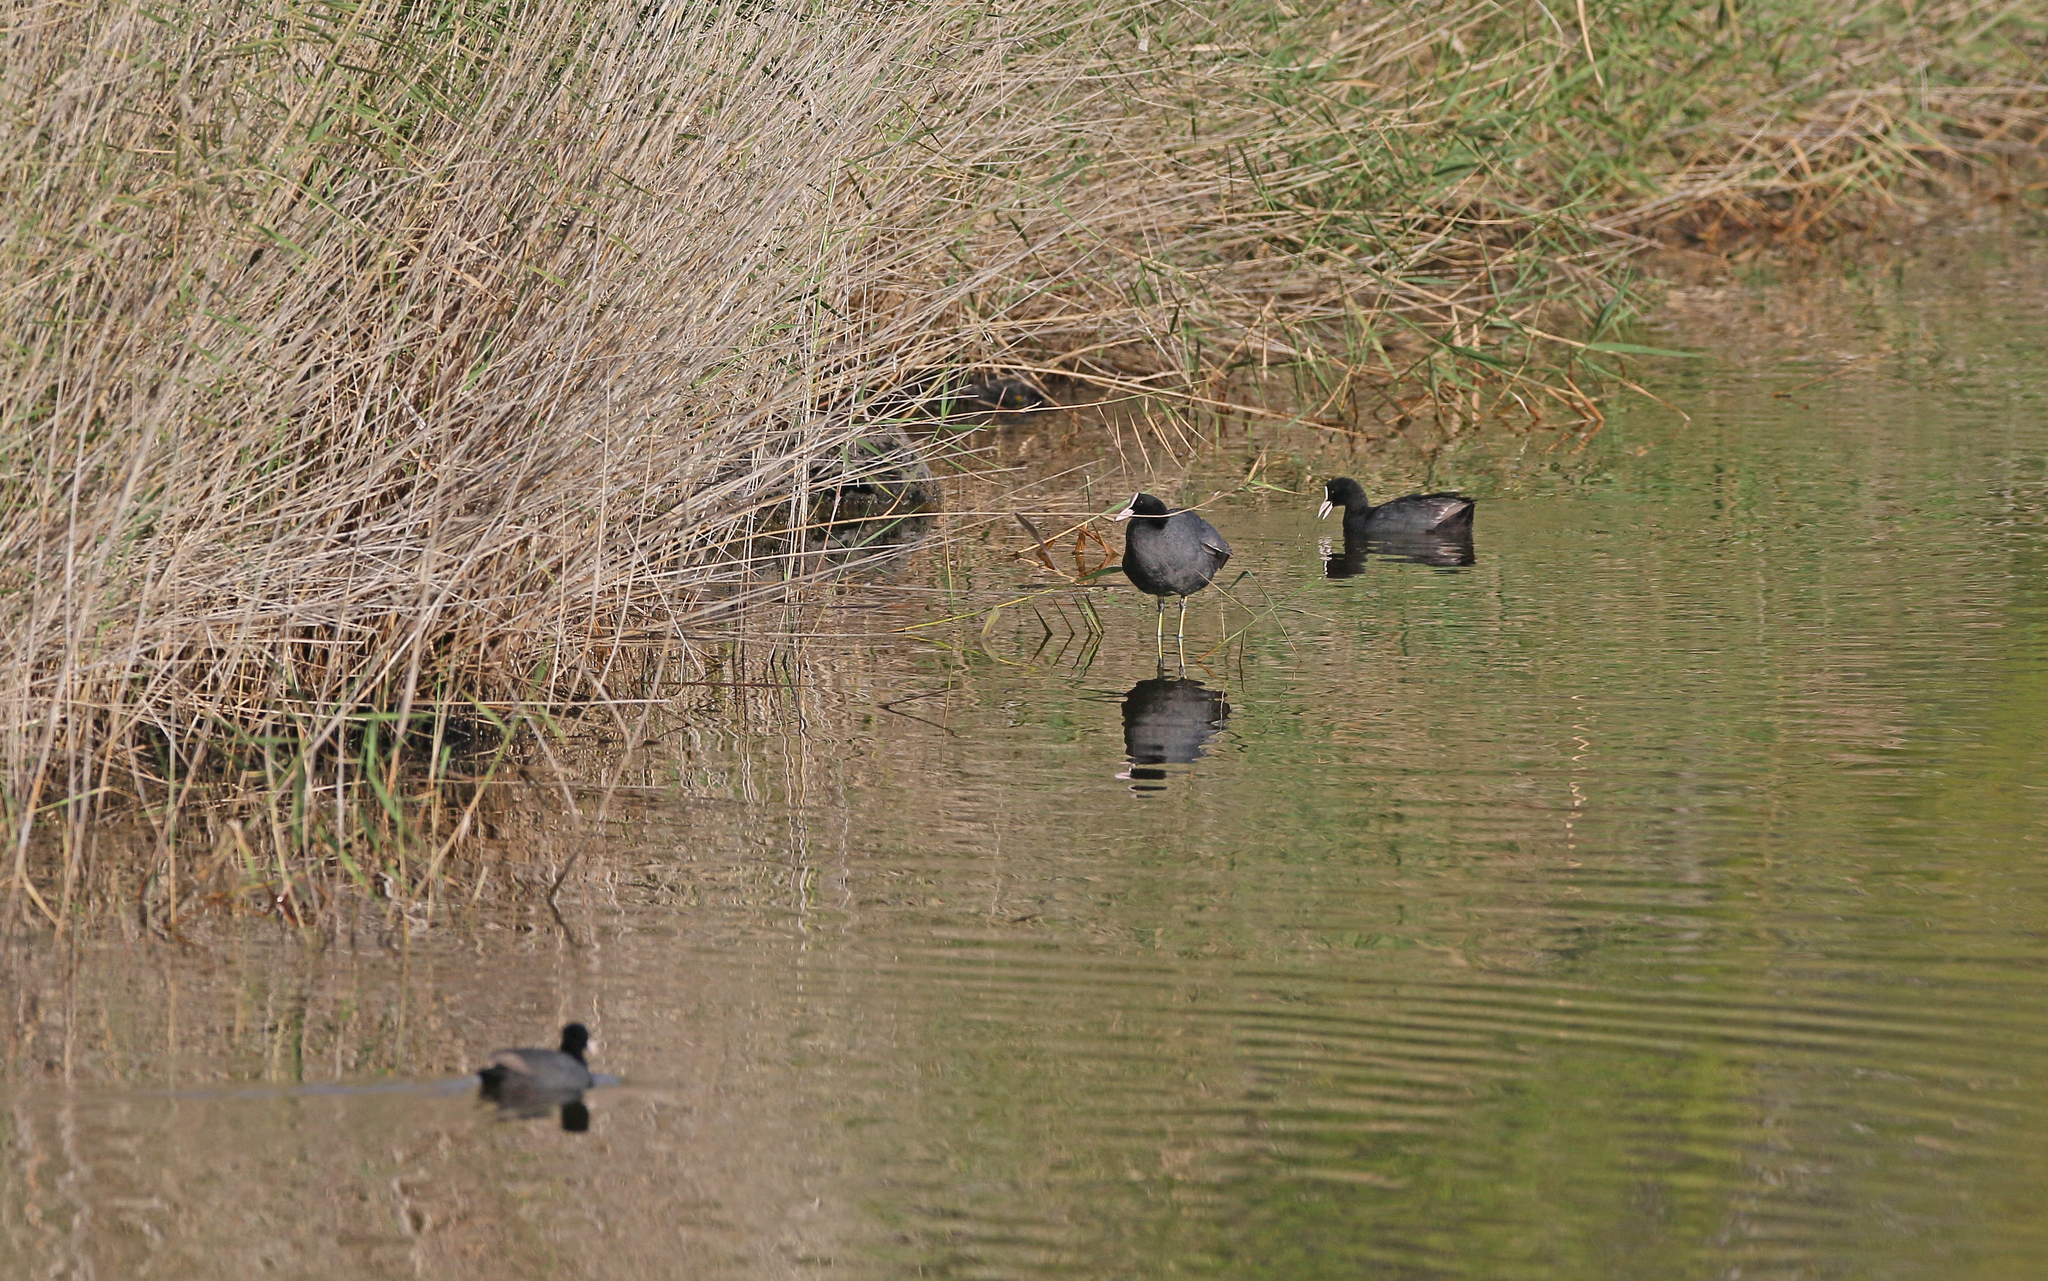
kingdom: Animalia
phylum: Chordata
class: Aves
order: Gruiformes
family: Rallidae
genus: Fulica
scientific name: Fulica atra
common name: Eurasian coot
